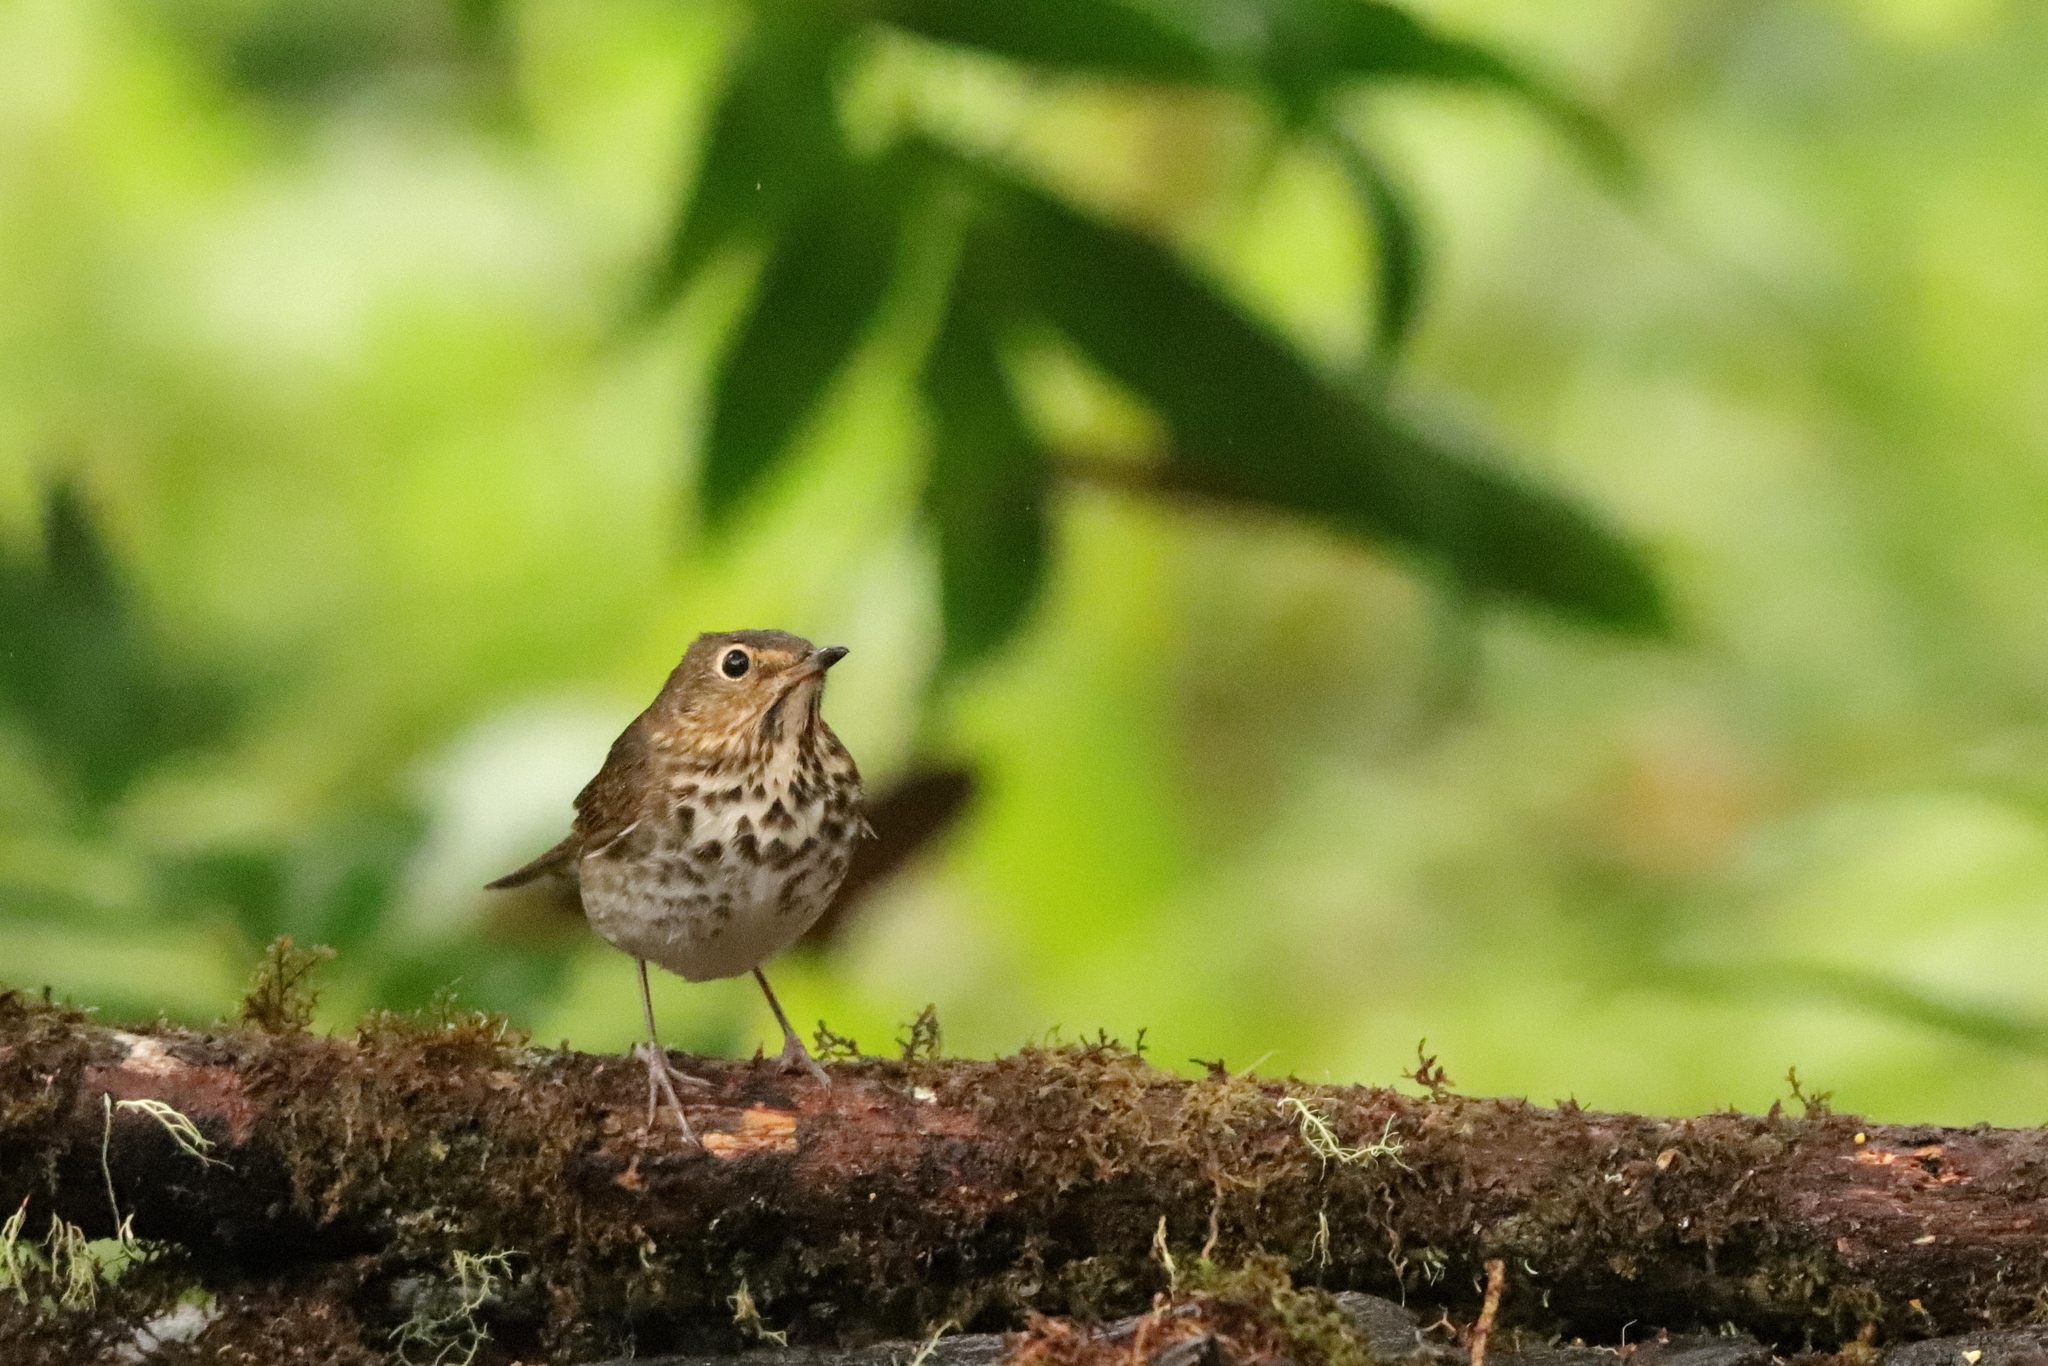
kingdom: Animalia
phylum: Chordata
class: Aves
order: Passeriformes
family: Turdidae
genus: Catharus
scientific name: Catharus ustulatus
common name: Swainson's thrush
